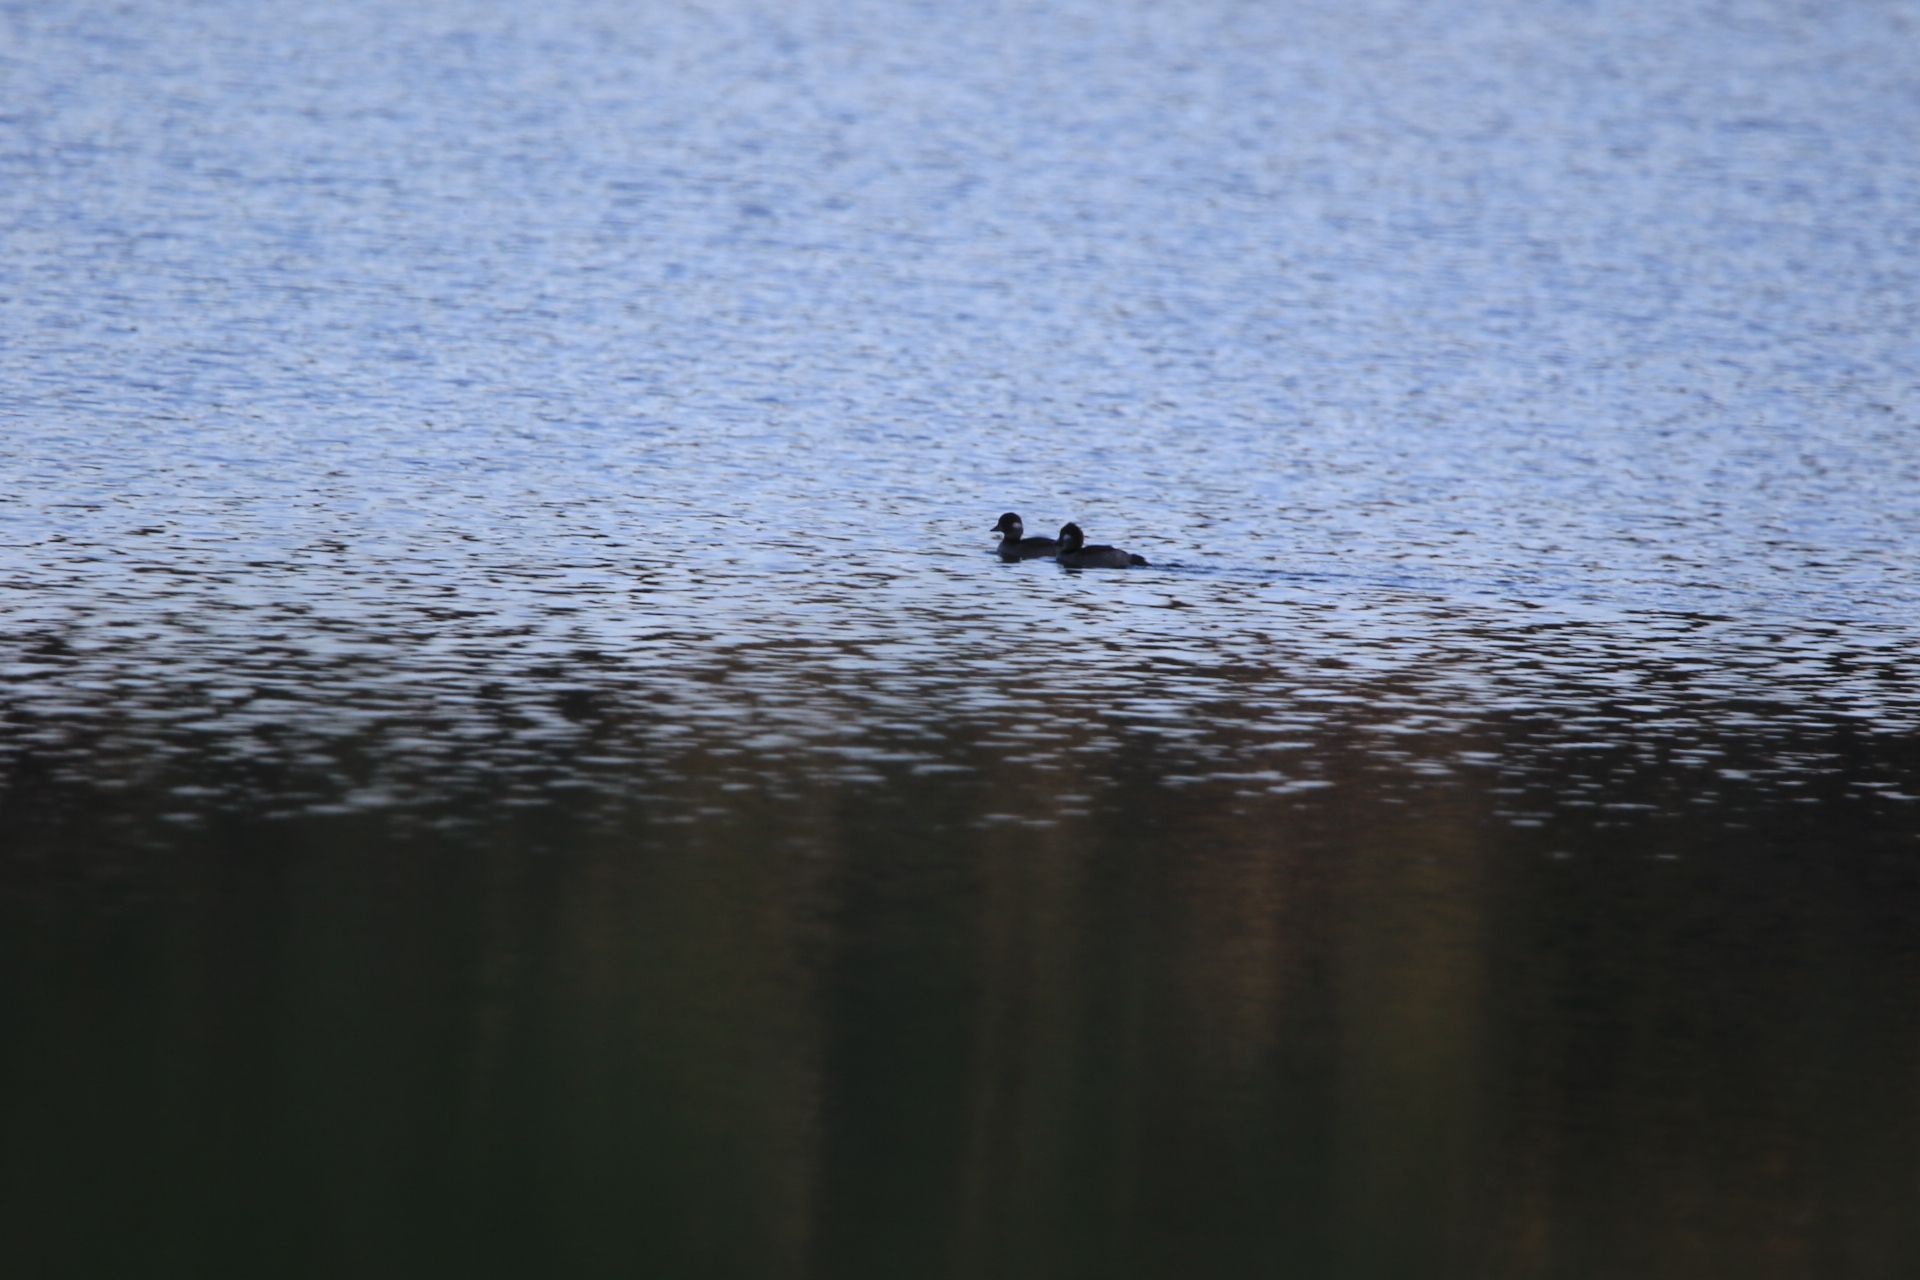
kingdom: Animalia
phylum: Chordata
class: Aves
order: Anseriformes
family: Anatidae
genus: Bucephala
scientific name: Bucephala albeola
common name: Bufflehead
